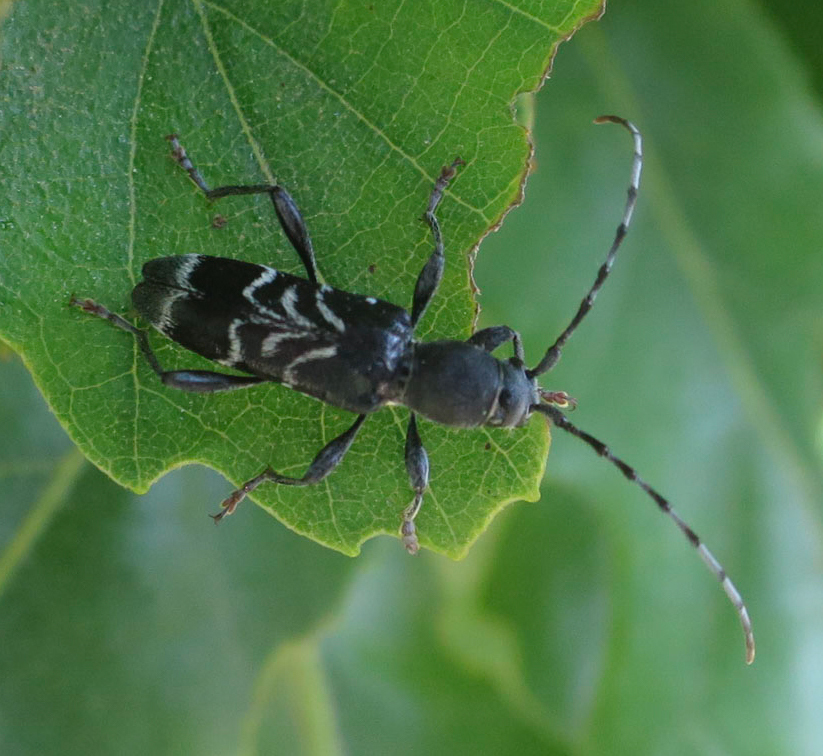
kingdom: Animalia
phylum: Arthropoda
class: Insecta
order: Coleoptera
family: Cerambycidae
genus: Anaglyptus
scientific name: Anaglyptus mysticus
